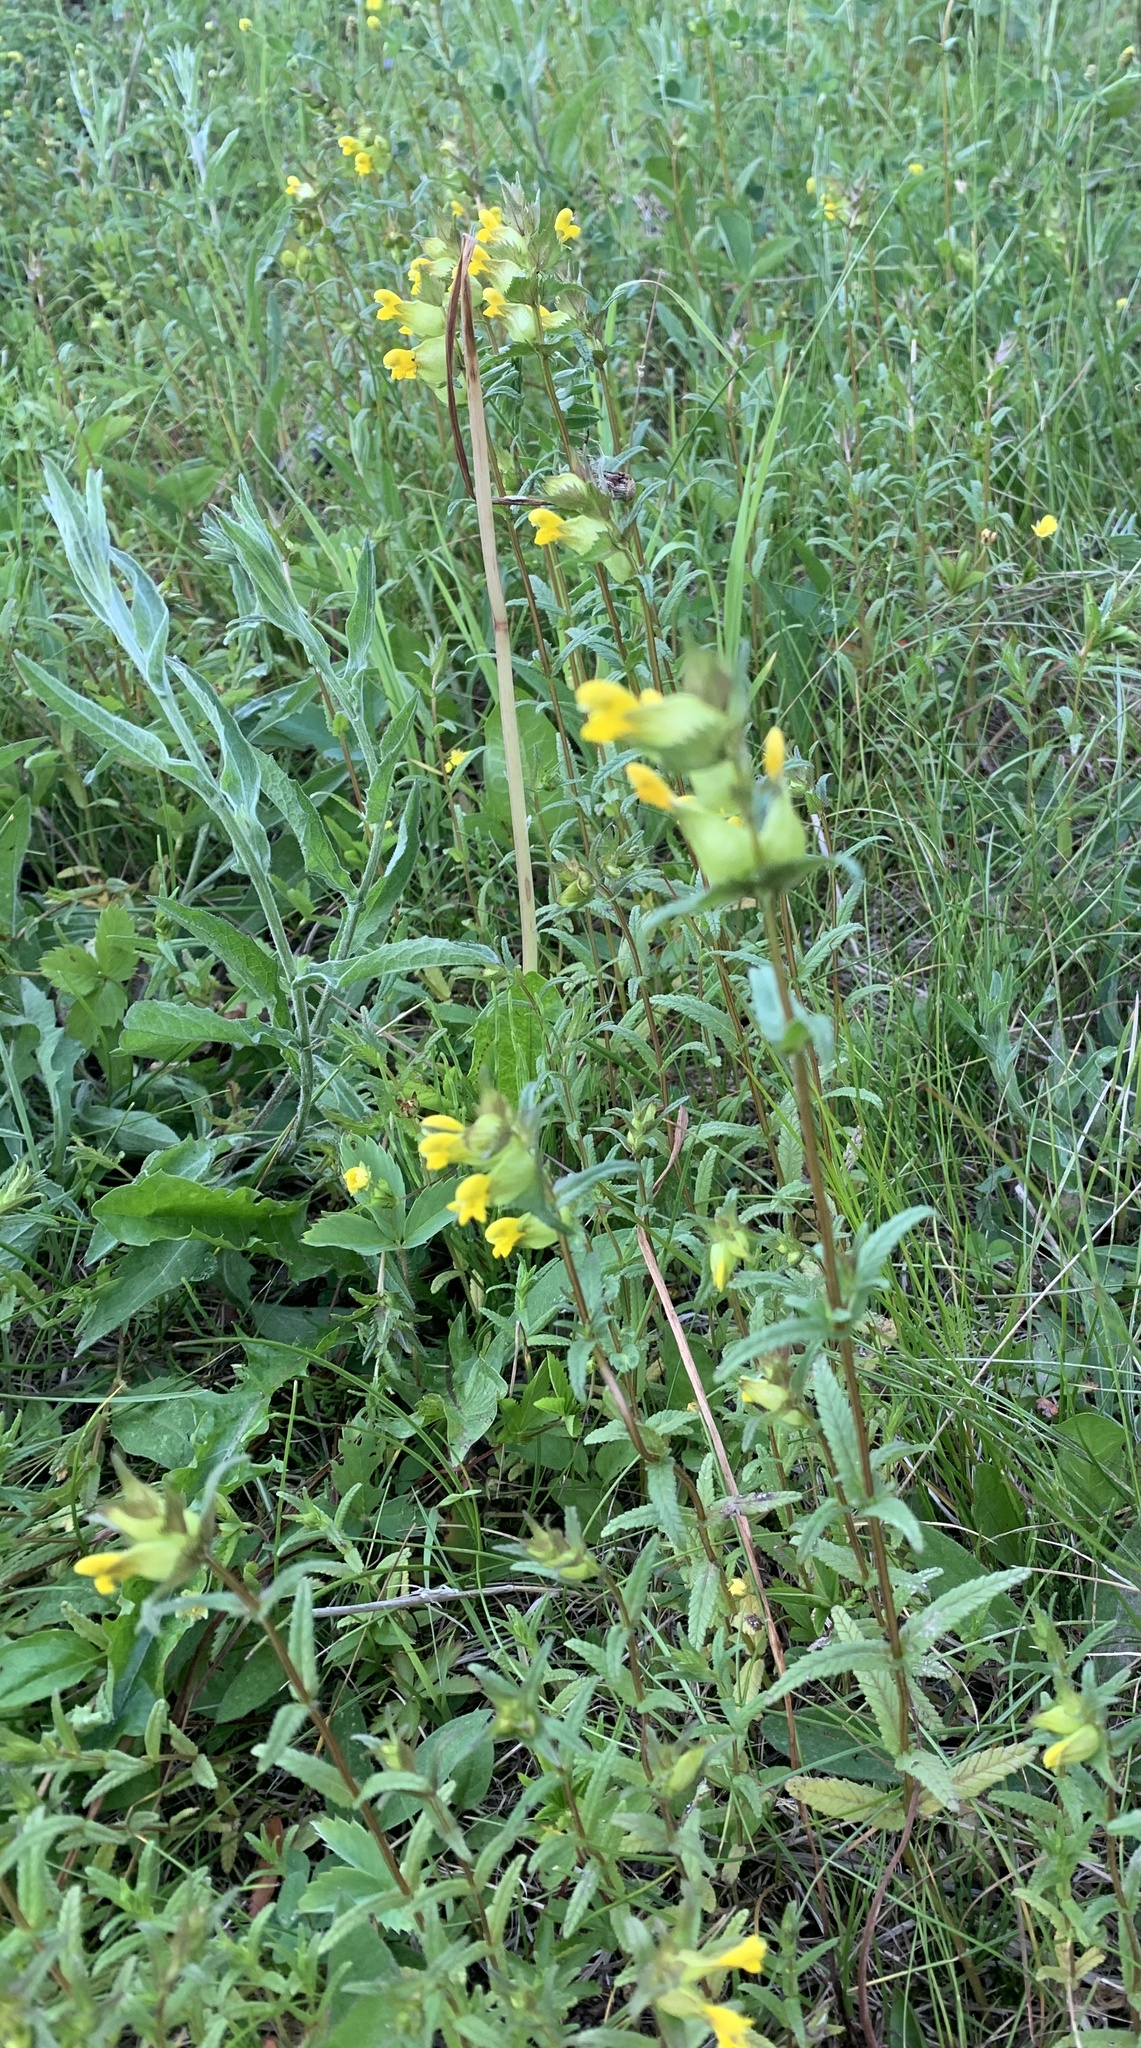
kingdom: Plantae
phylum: Tracheophyta
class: Magnoliopsida
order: Lamiales
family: Orobanchaceae
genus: Rhinanthus
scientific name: Rhinanthus minor
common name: Yellow-rattle
